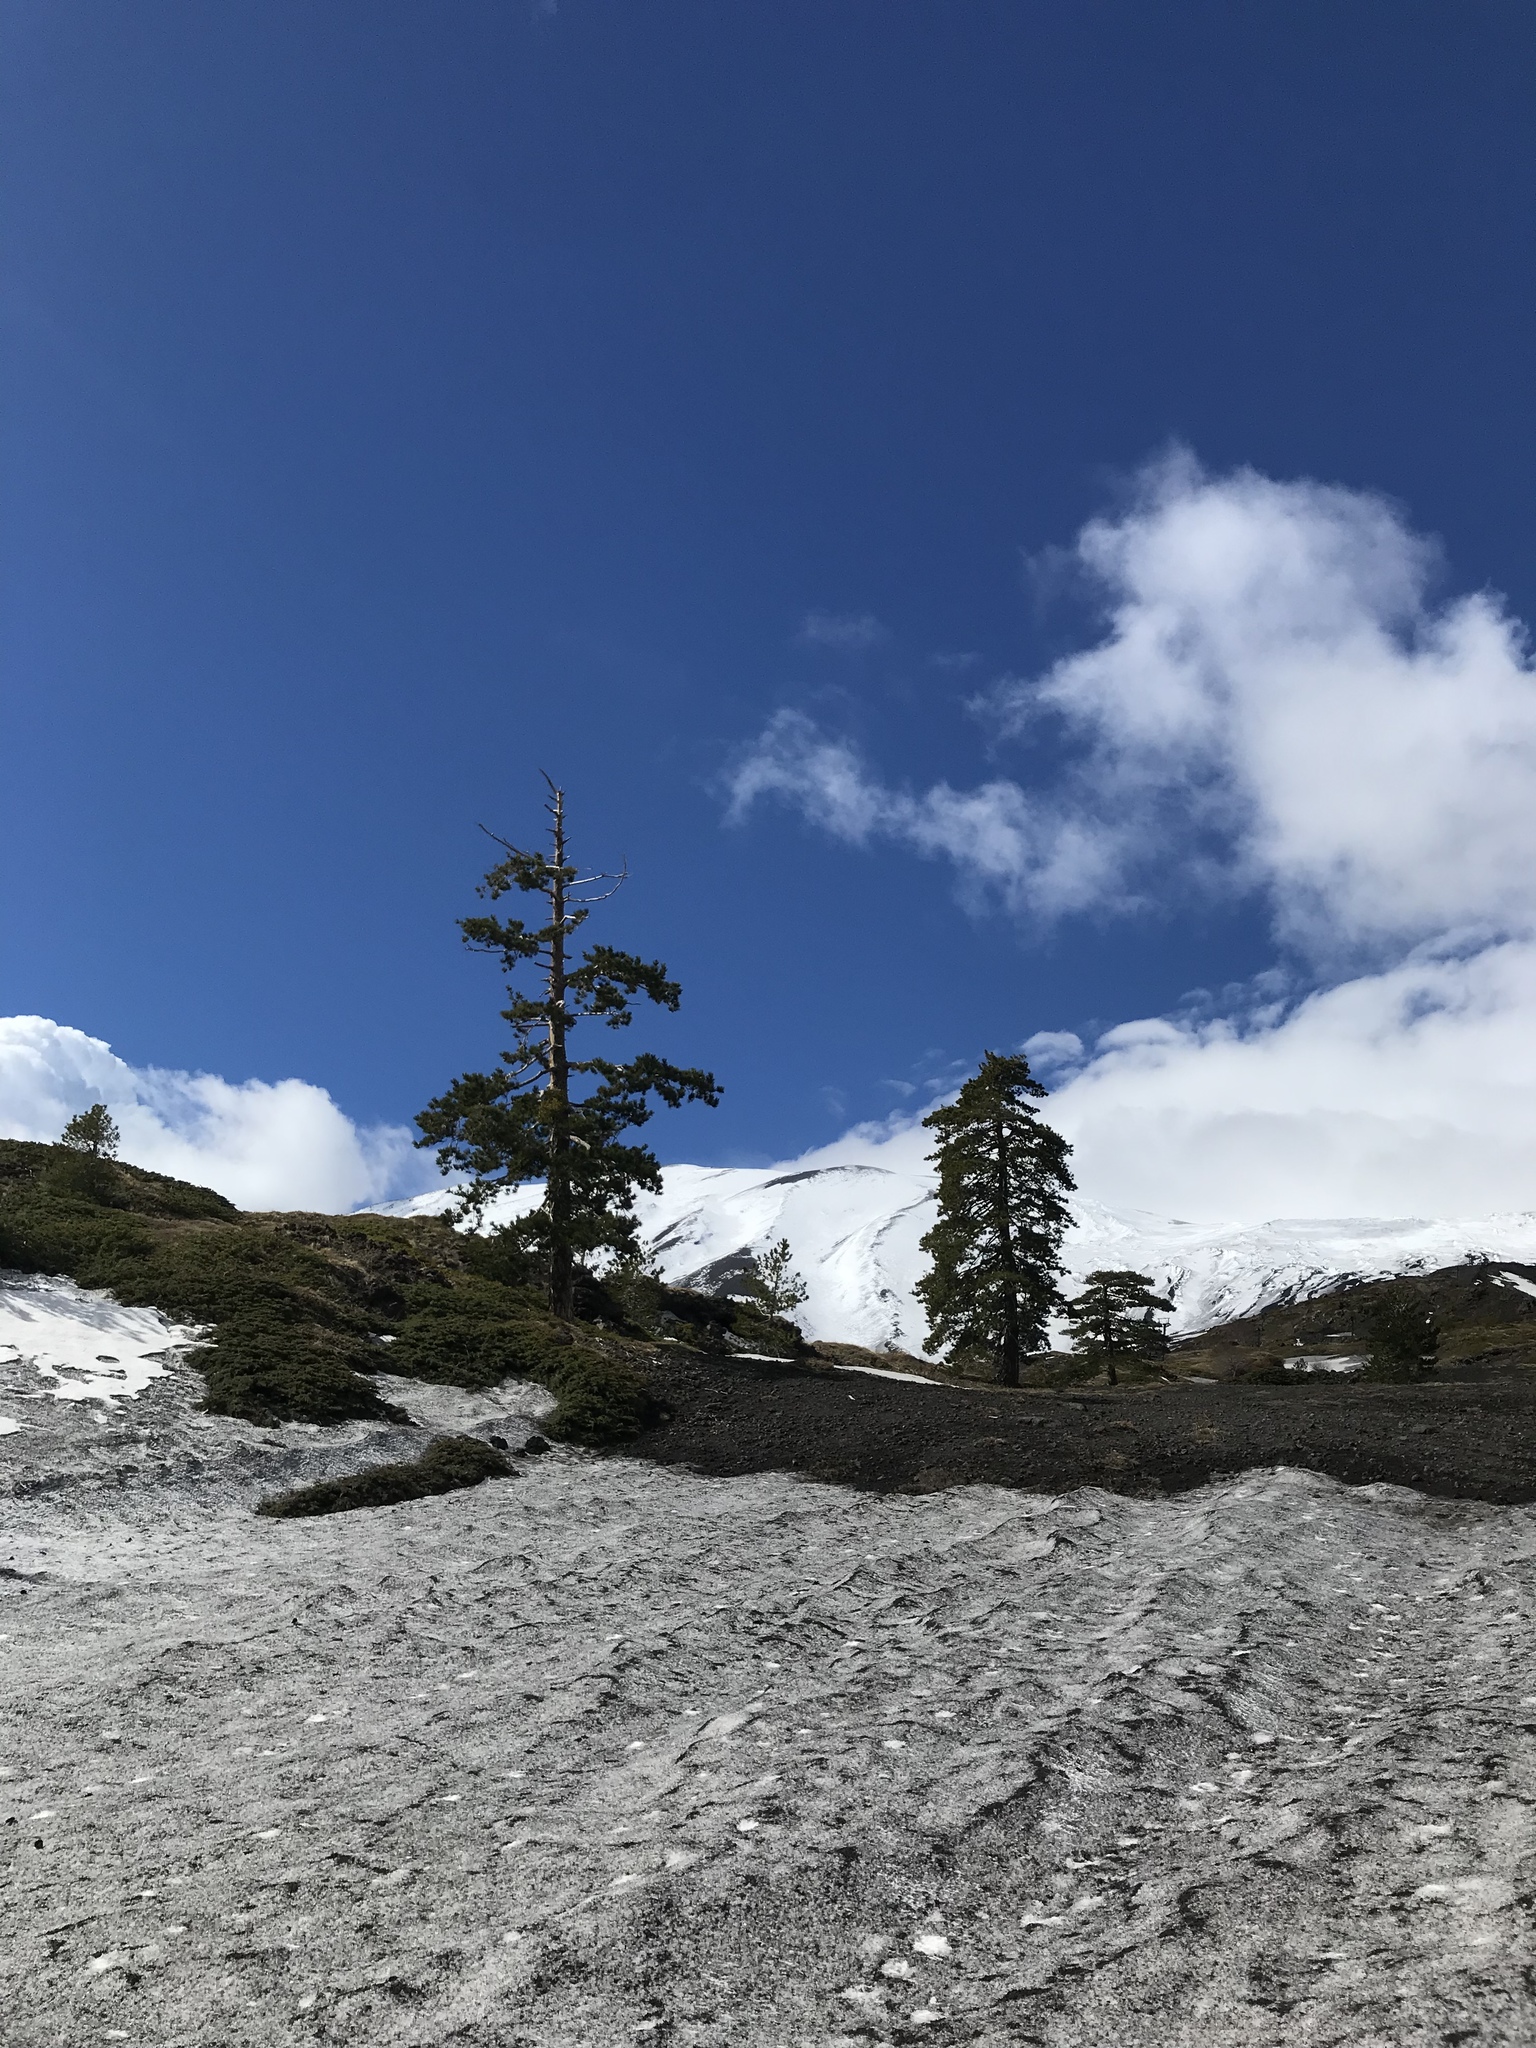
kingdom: Plantae
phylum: Tracheophyta
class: Pinopsida
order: Pinales
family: Pinaceae
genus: Pinus
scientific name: Pinus nigra
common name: Austrian pine
